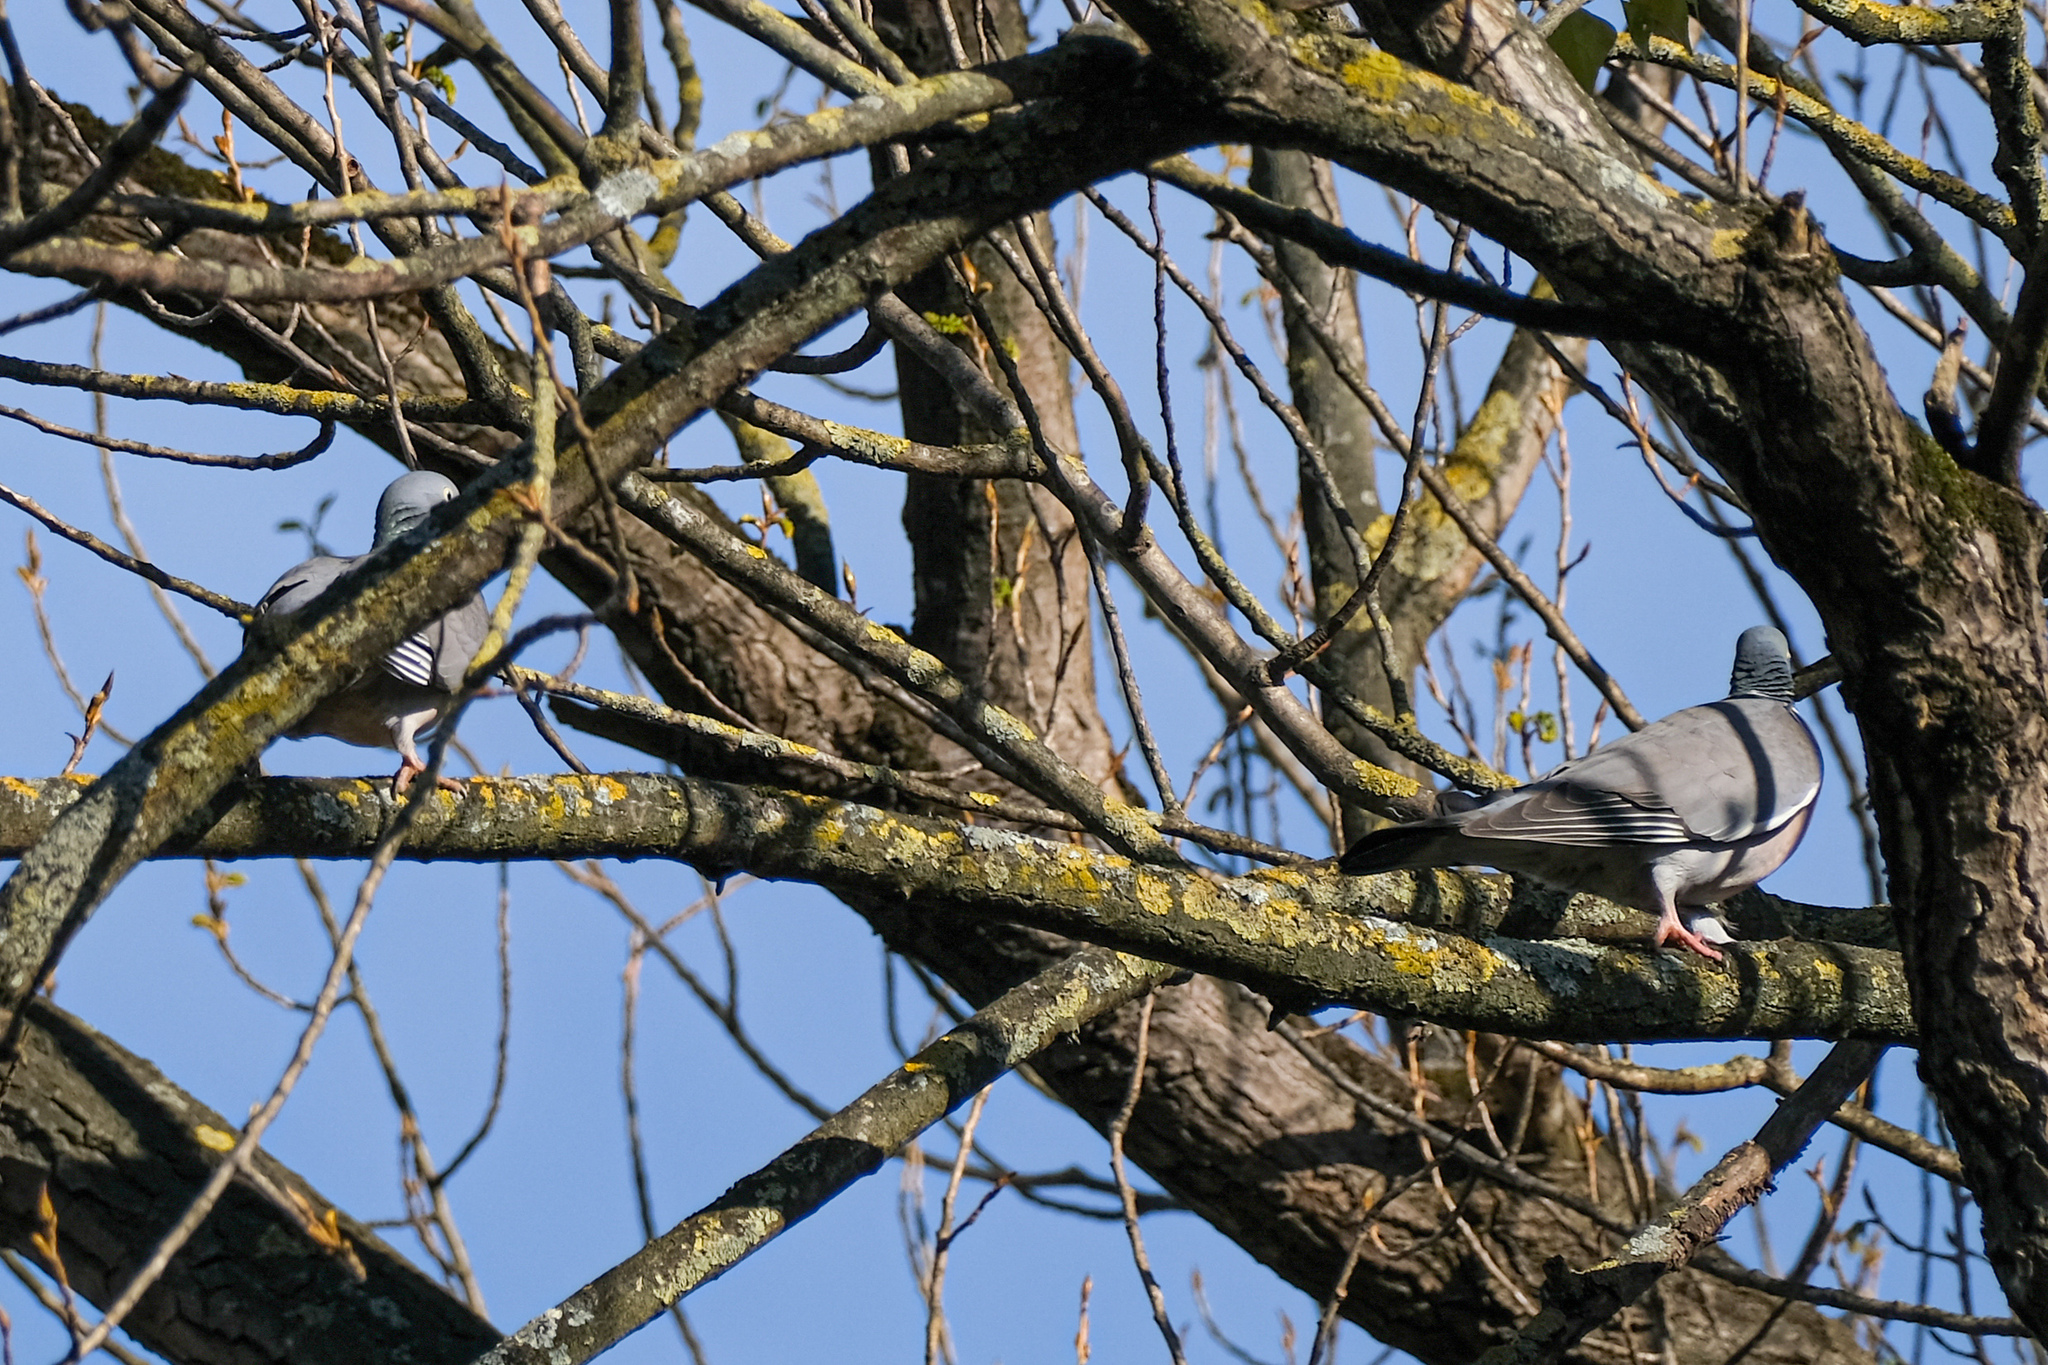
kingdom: Animalia
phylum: Chordata
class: Aves
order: Columbiformes
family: Columbidae
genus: Columba
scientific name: Columba palumbus
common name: Common wood pigeon
